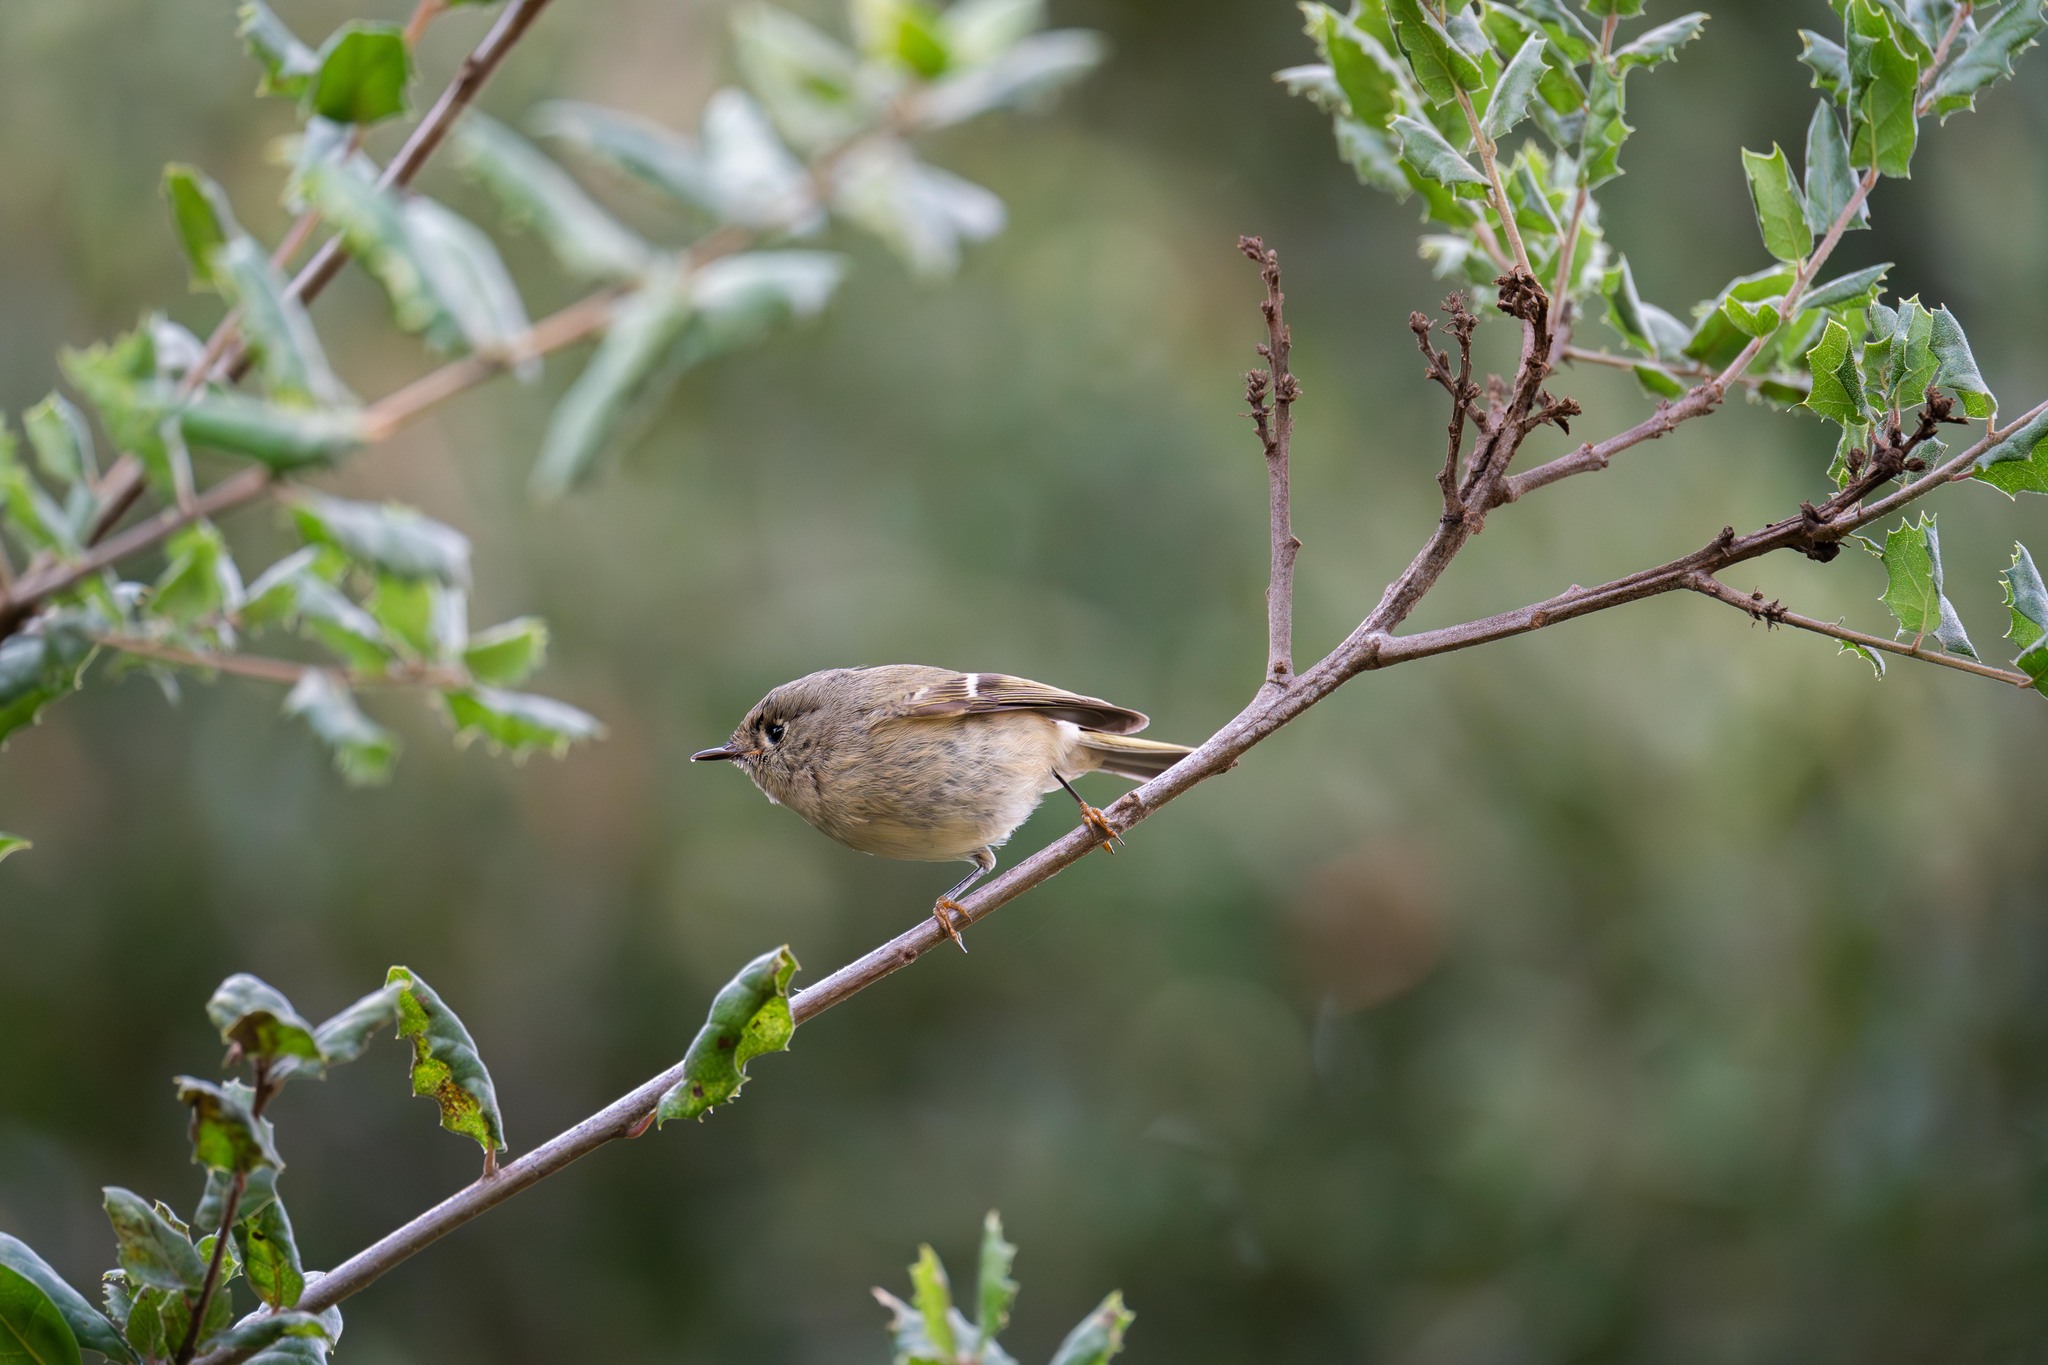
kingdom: Animalia
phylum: Chordata
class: Aves
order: Passeriformes
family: Regulidae
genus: Regulus
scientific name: Regulus calendula
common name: Ruby-crowned kinglet
